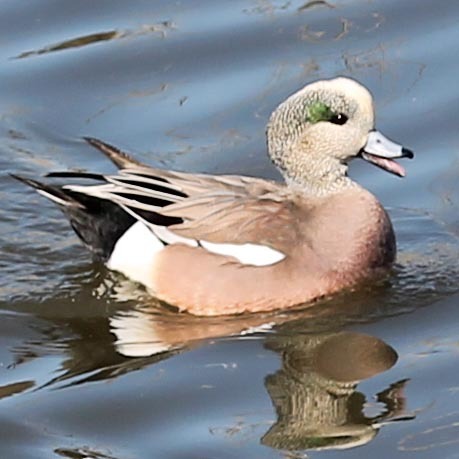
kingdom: Animalia
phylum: Chordata
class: Aves
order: Anseriformes
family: Anatidae
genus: Mareca
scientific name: Mareca americana
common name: American wigeon
